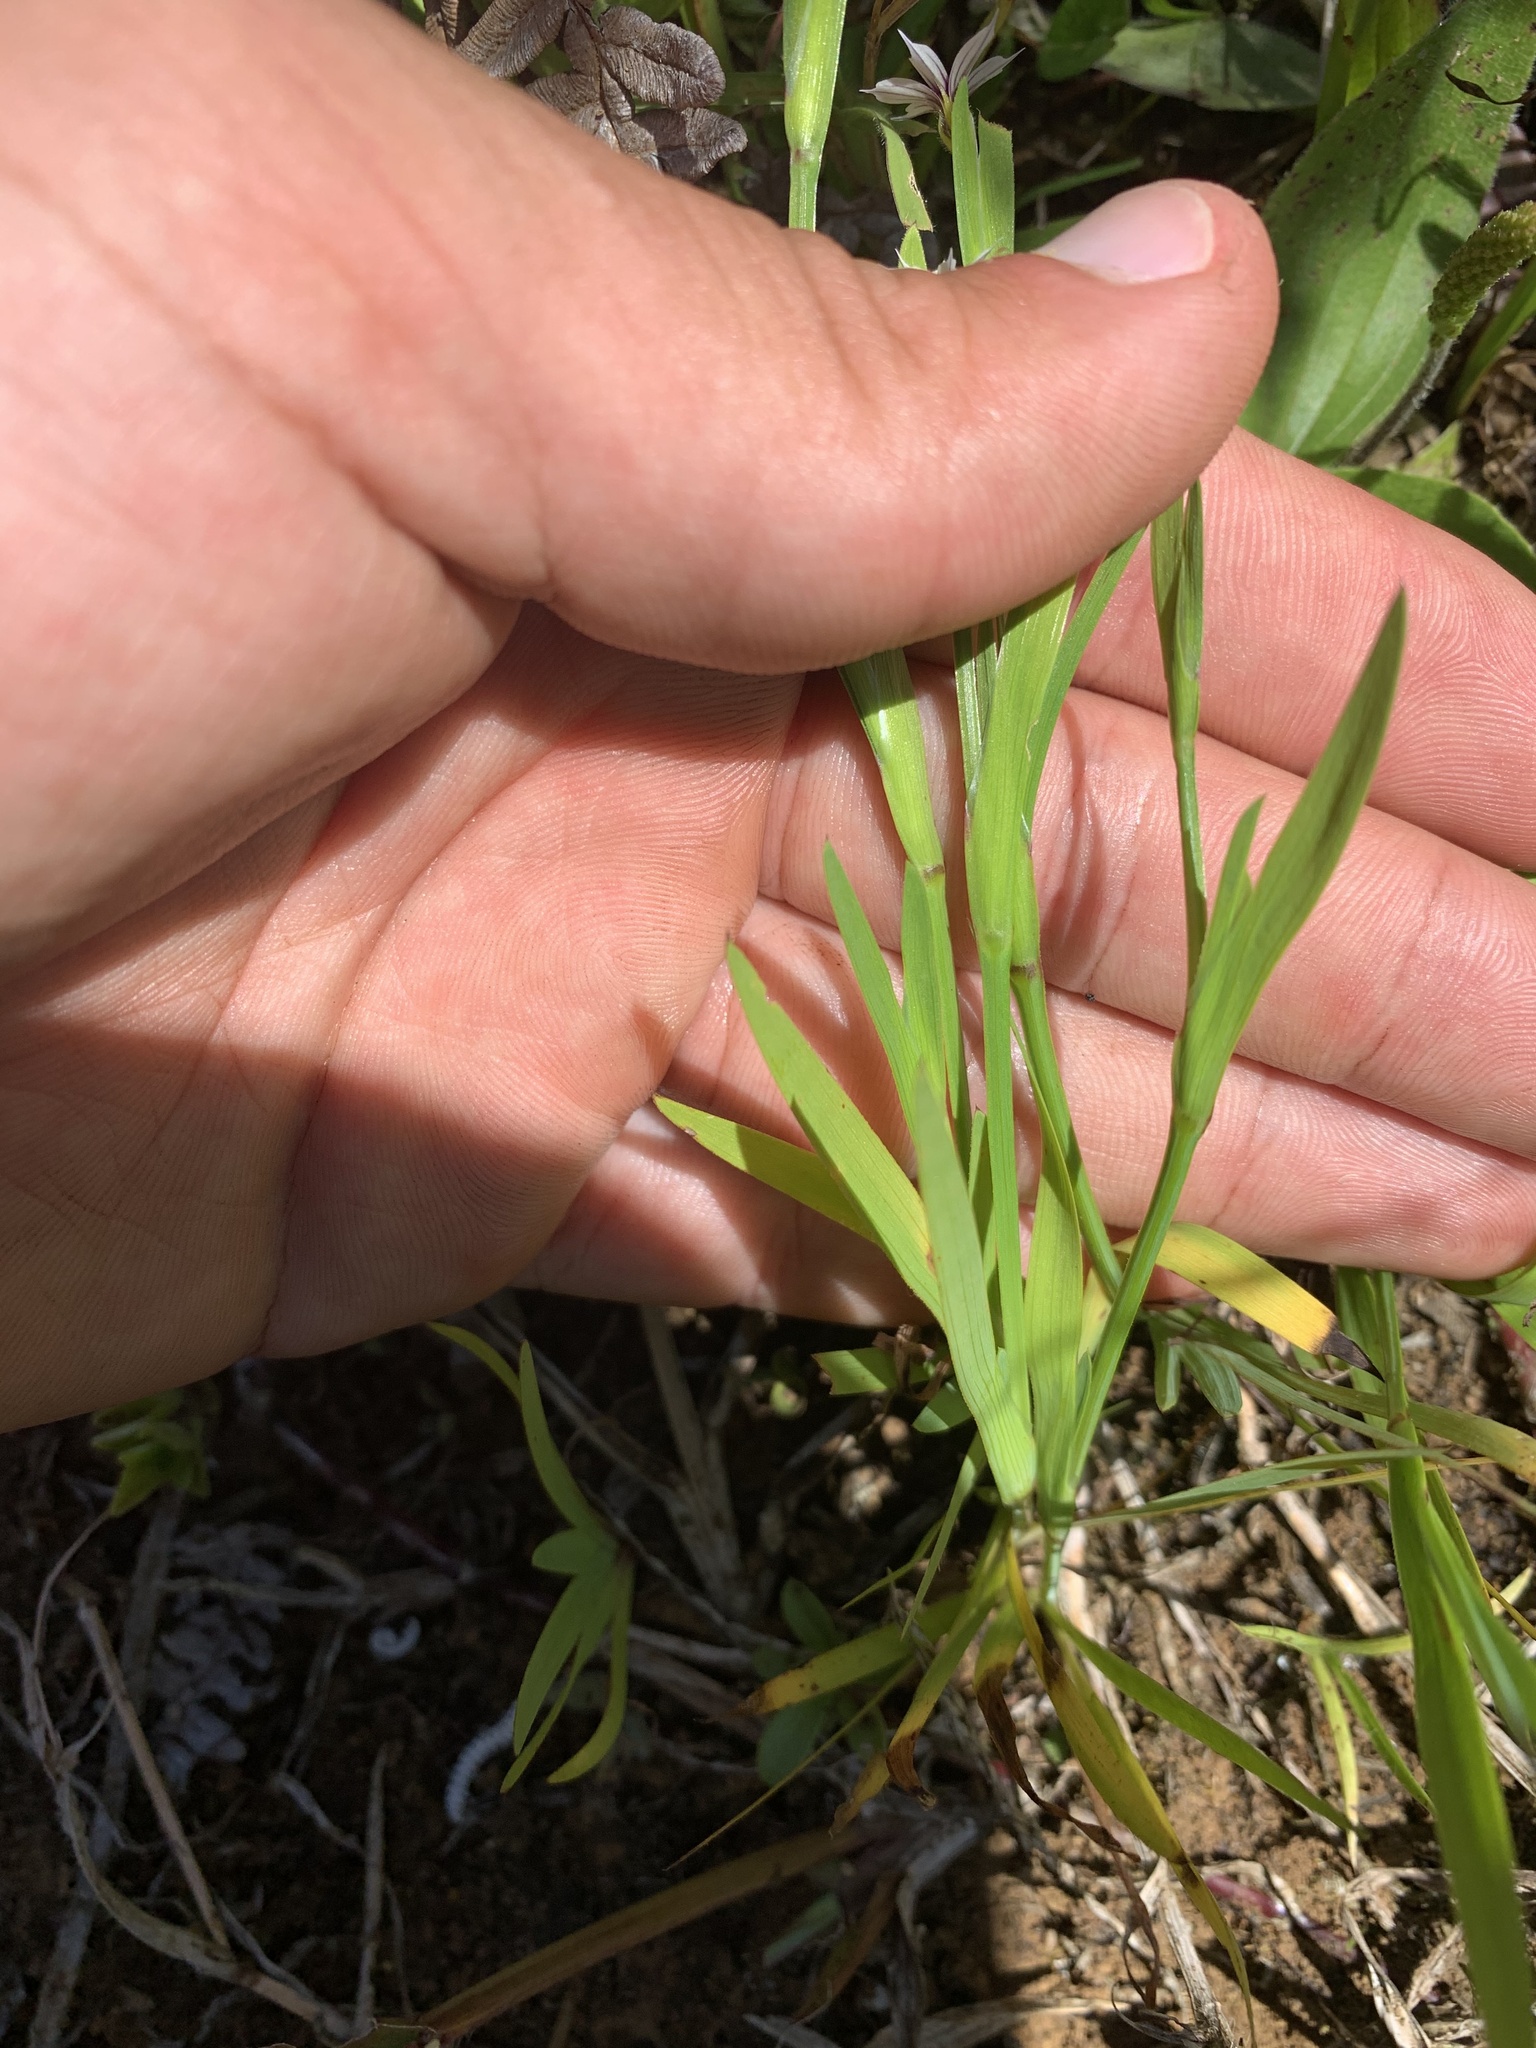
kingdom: Plantae
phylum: Tracheophyta
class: Liliopsida
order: Asparagales
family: Iridaceae
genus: Sisyrinchium
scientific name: Sisyrinchium micranthum
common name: Bermuda pigroot
